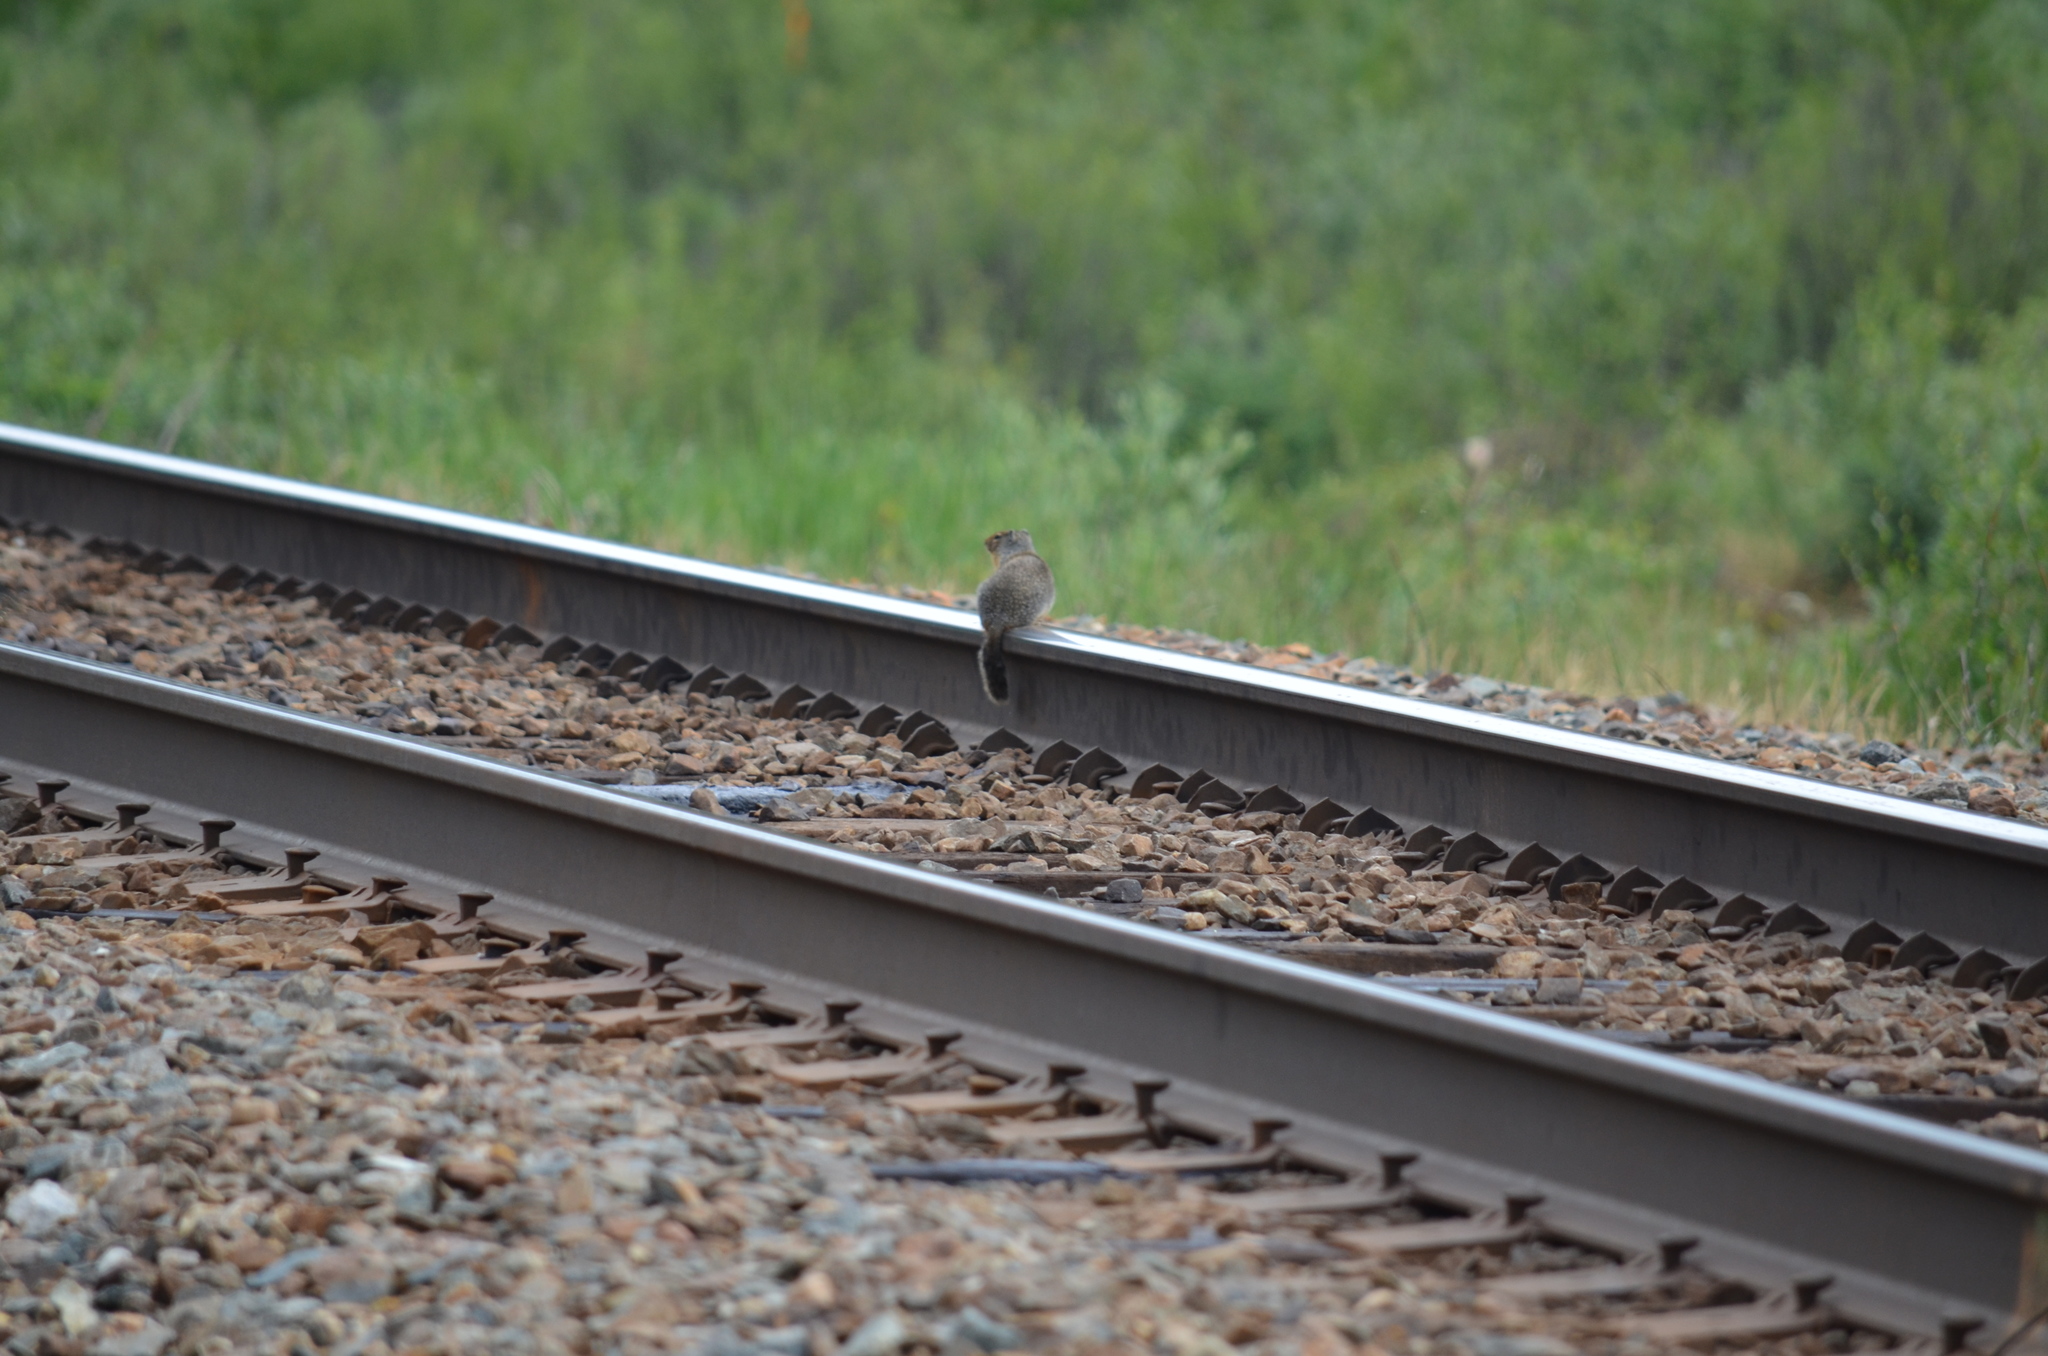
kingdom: Animalia
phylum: Chordata
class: Mammalia
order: Rodentia
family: Sciuridae
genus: Urocitellus
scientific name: Urocitellus columbianus
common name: Columbian ground squirrel
